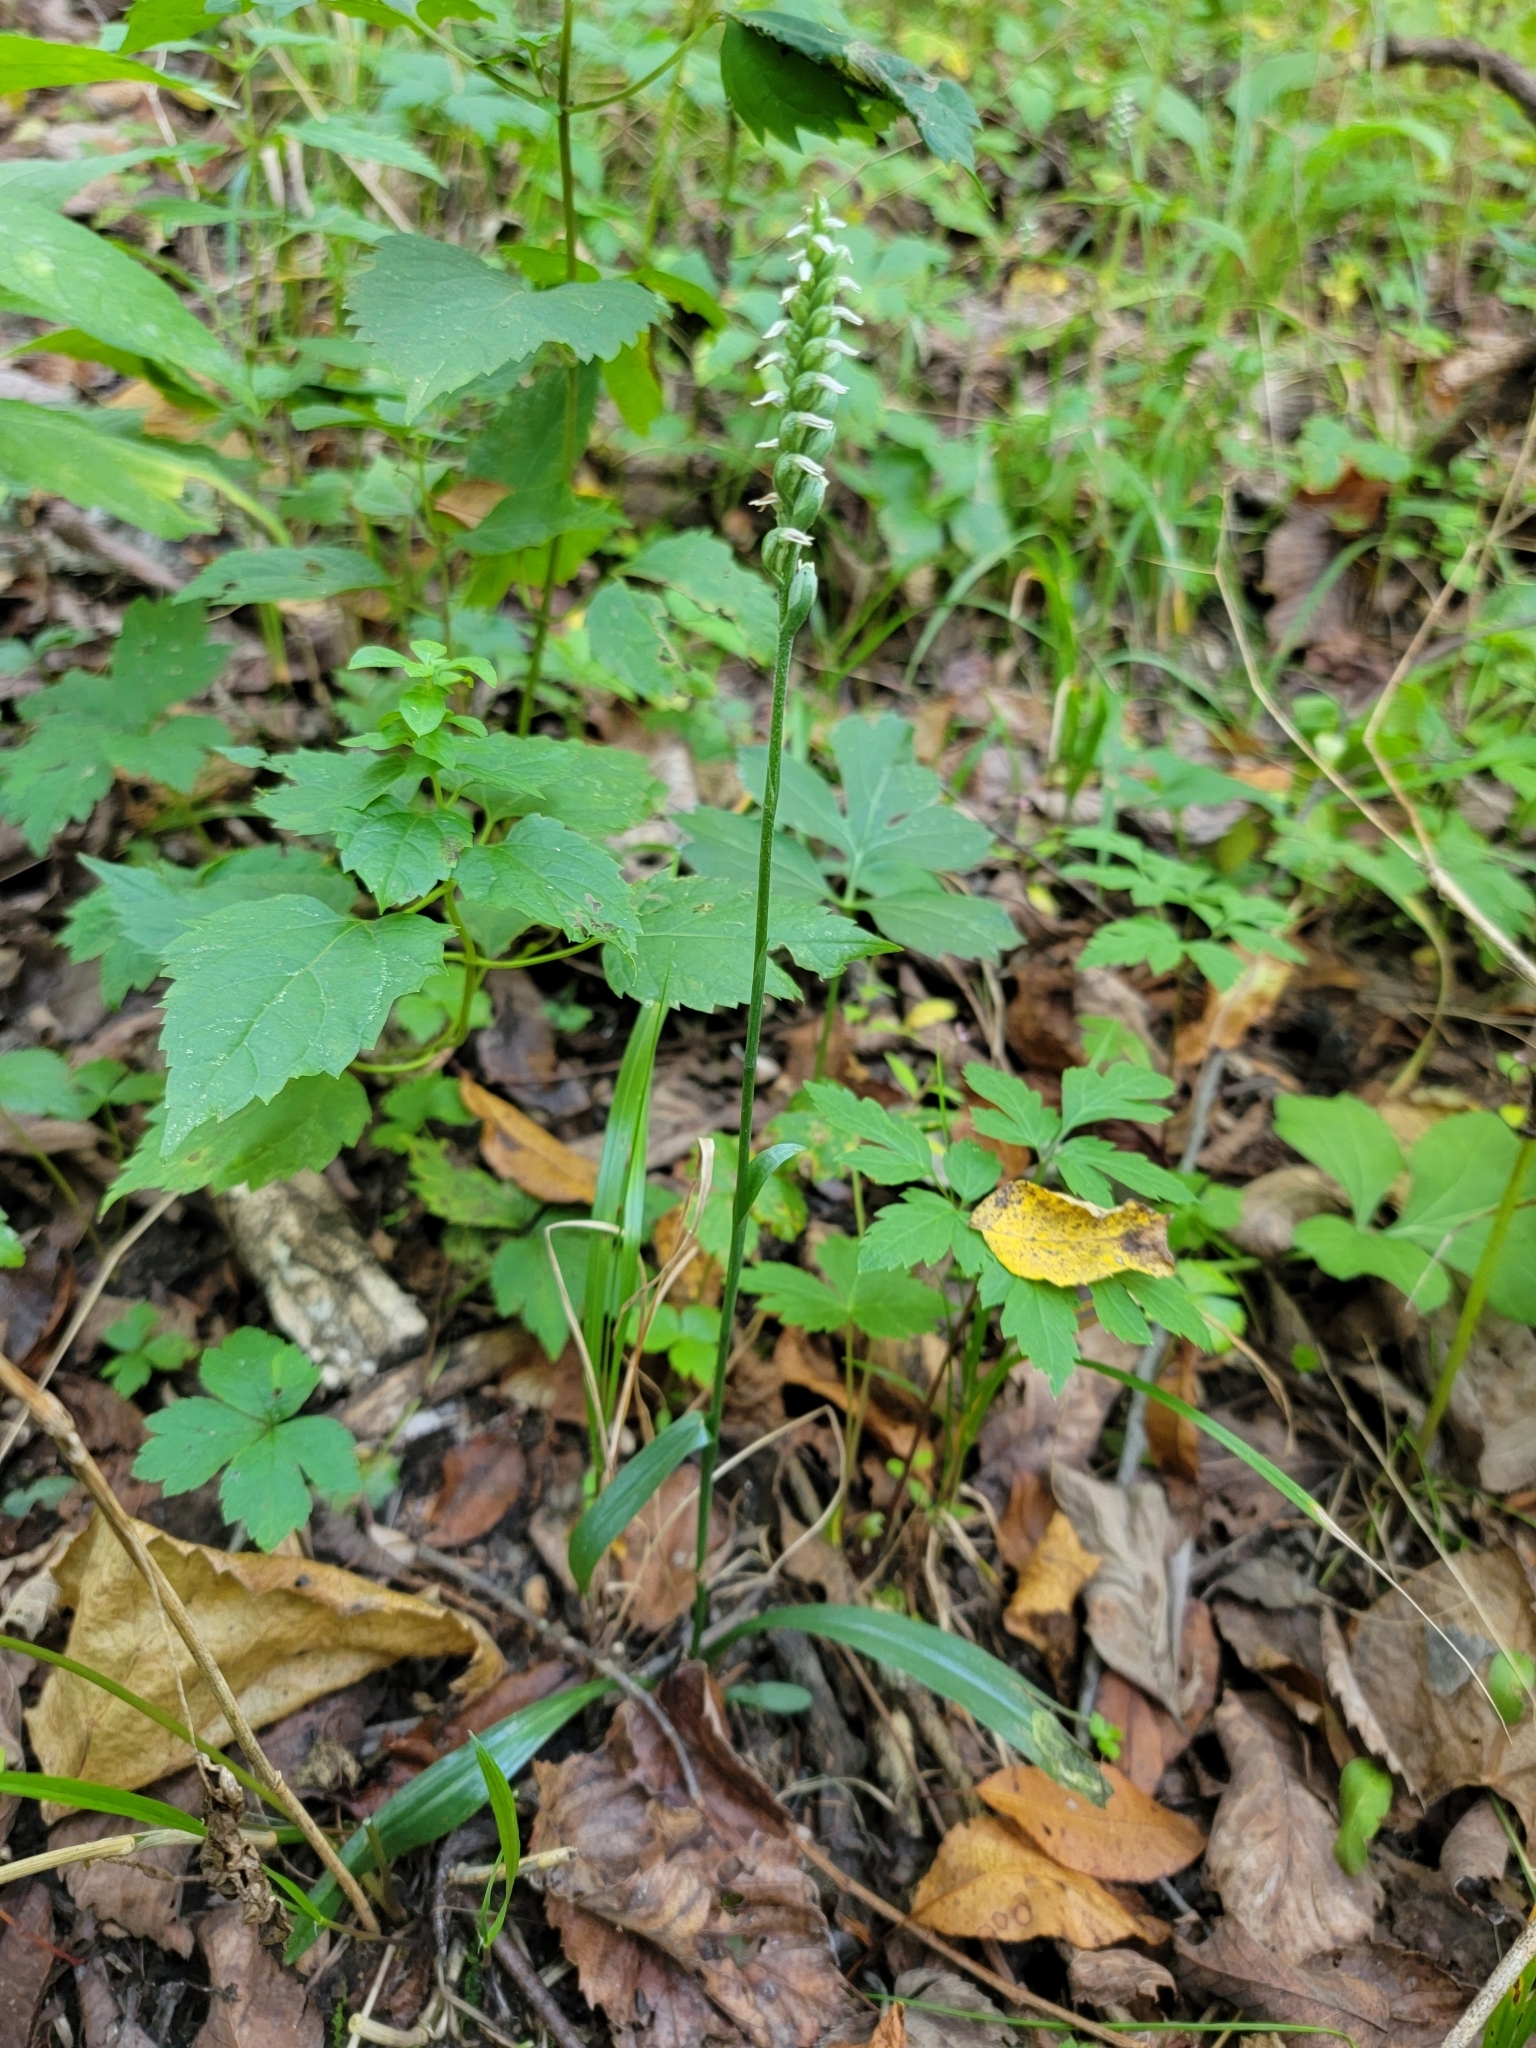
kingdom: Plantae
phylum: Tracheophyta
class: Liliopsida
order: Asparagales
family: Orchidaceae
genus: Spiranthes
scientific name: Spiranthes ovalis
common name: October ladies'-tresses
